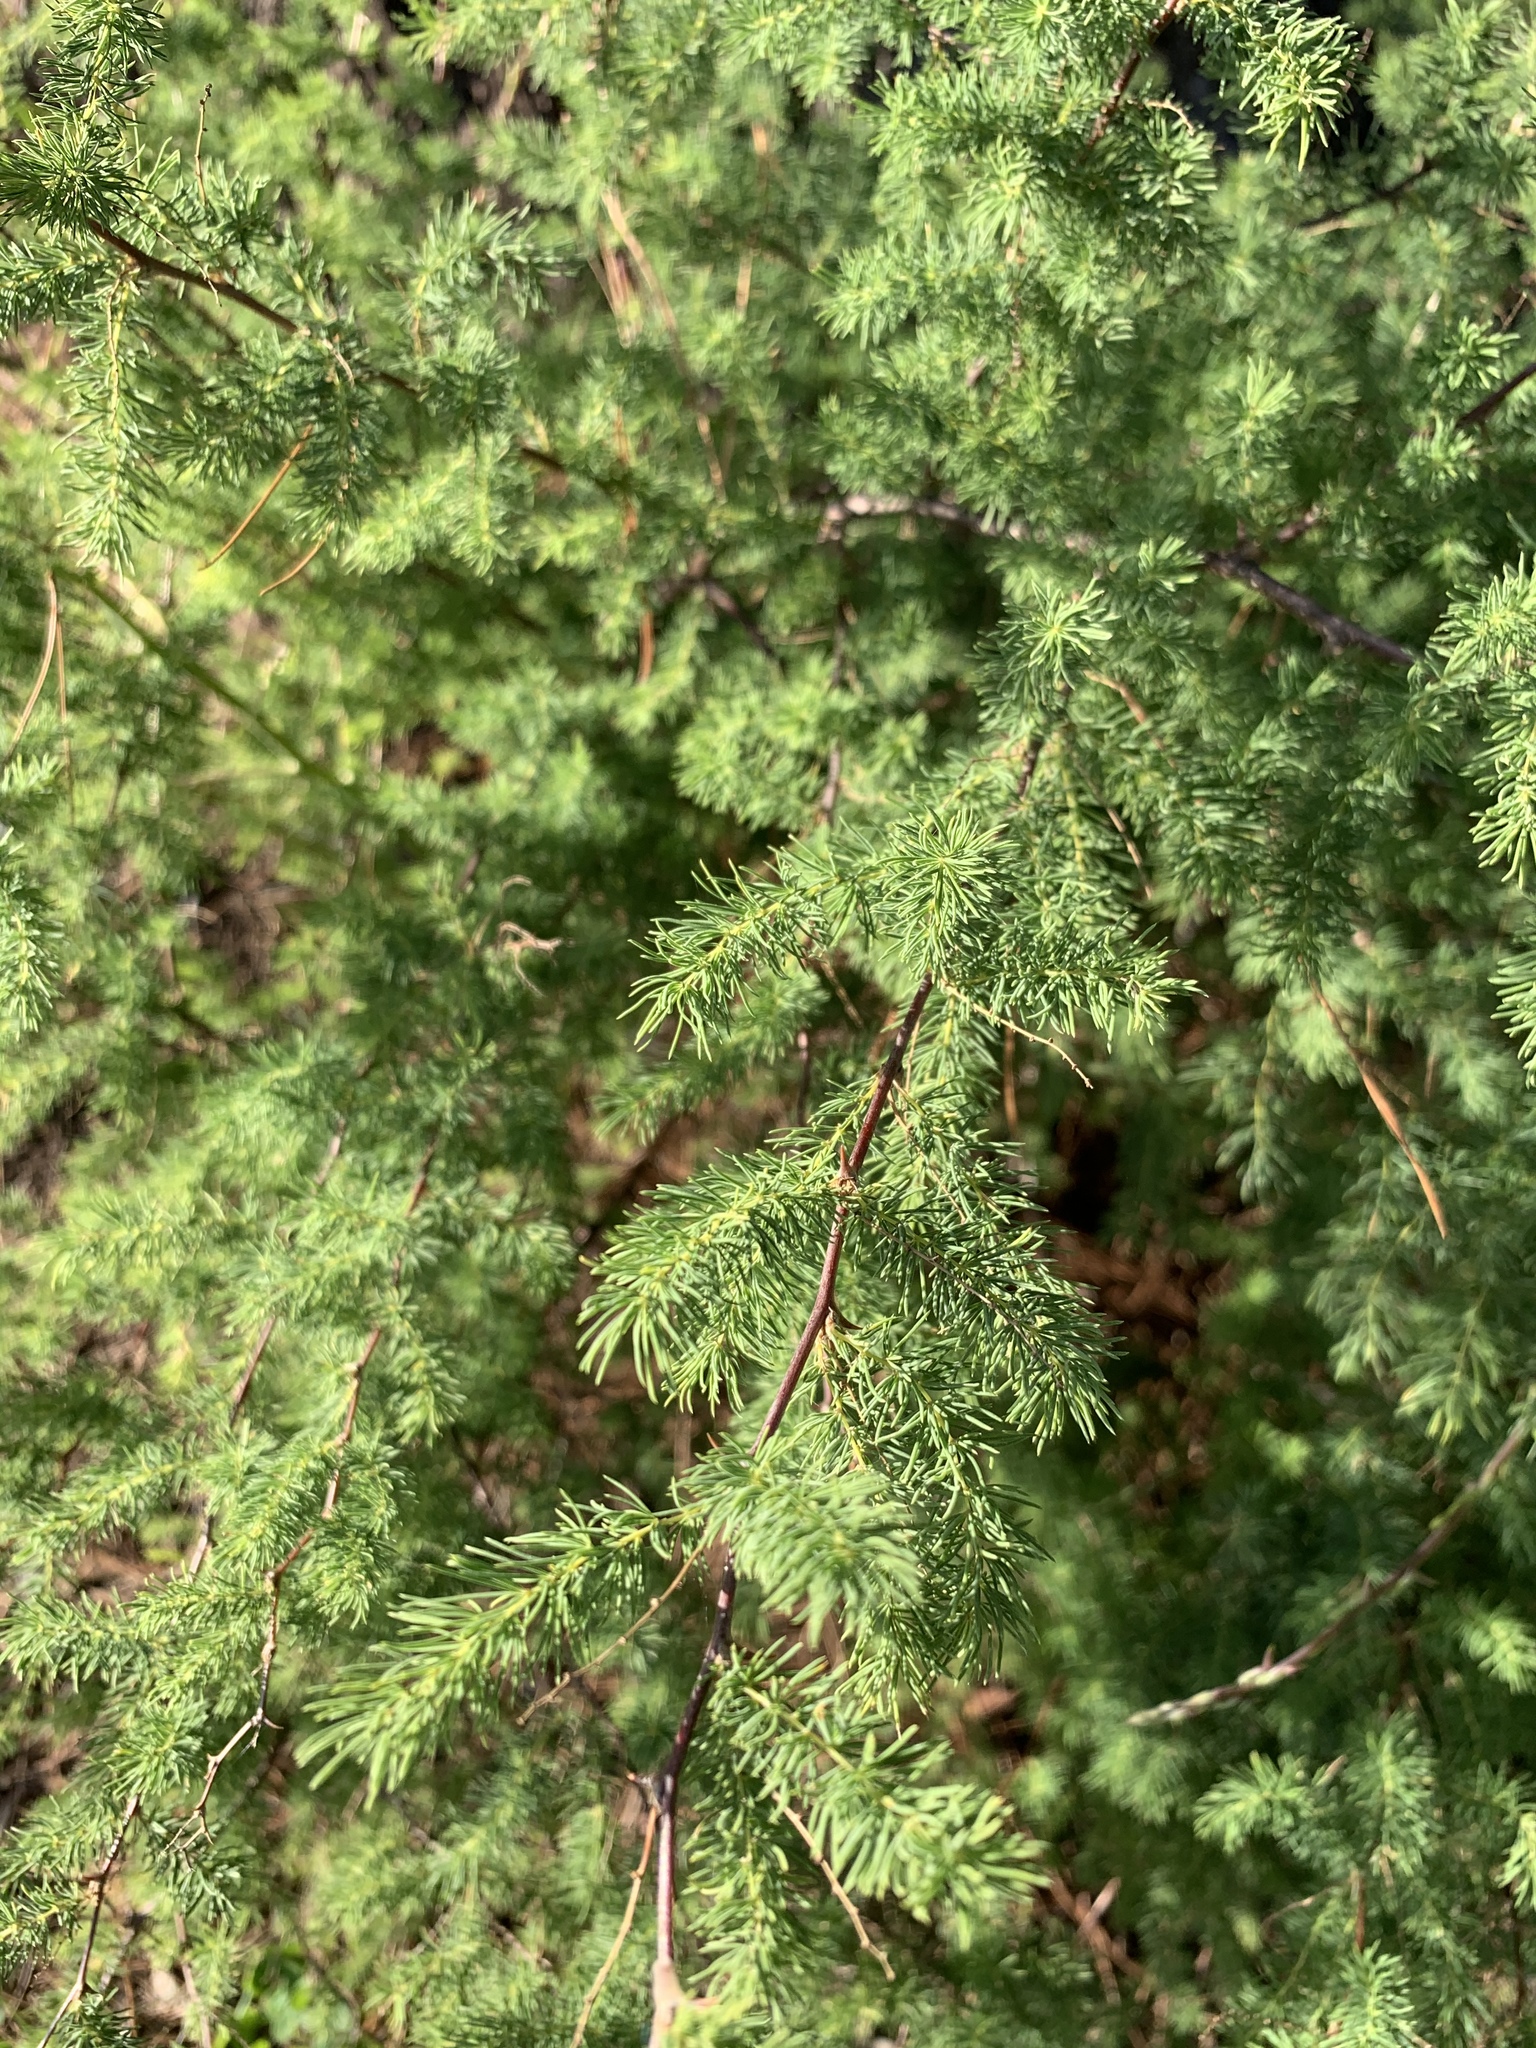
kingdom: Plantae
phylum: Tracheophyta
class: Liliopsida
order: Asparagales
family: Asparagaceae
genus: Asparagus
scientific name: Asparagus rubicundus
